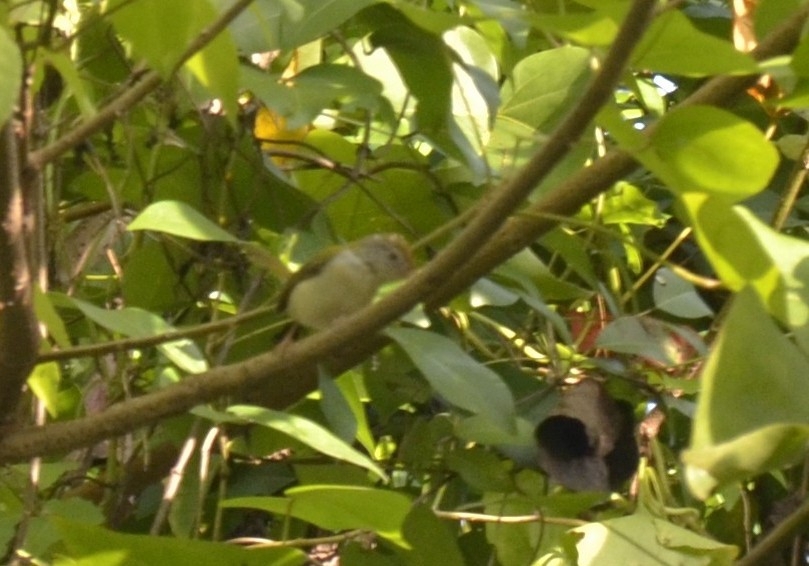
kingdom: Animalia
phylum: Chordata
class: Aves
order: Passeriformes
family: Cisticolidae
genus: Orthotomus
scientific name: Orthotomus sutorius
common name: Common tailorbird
